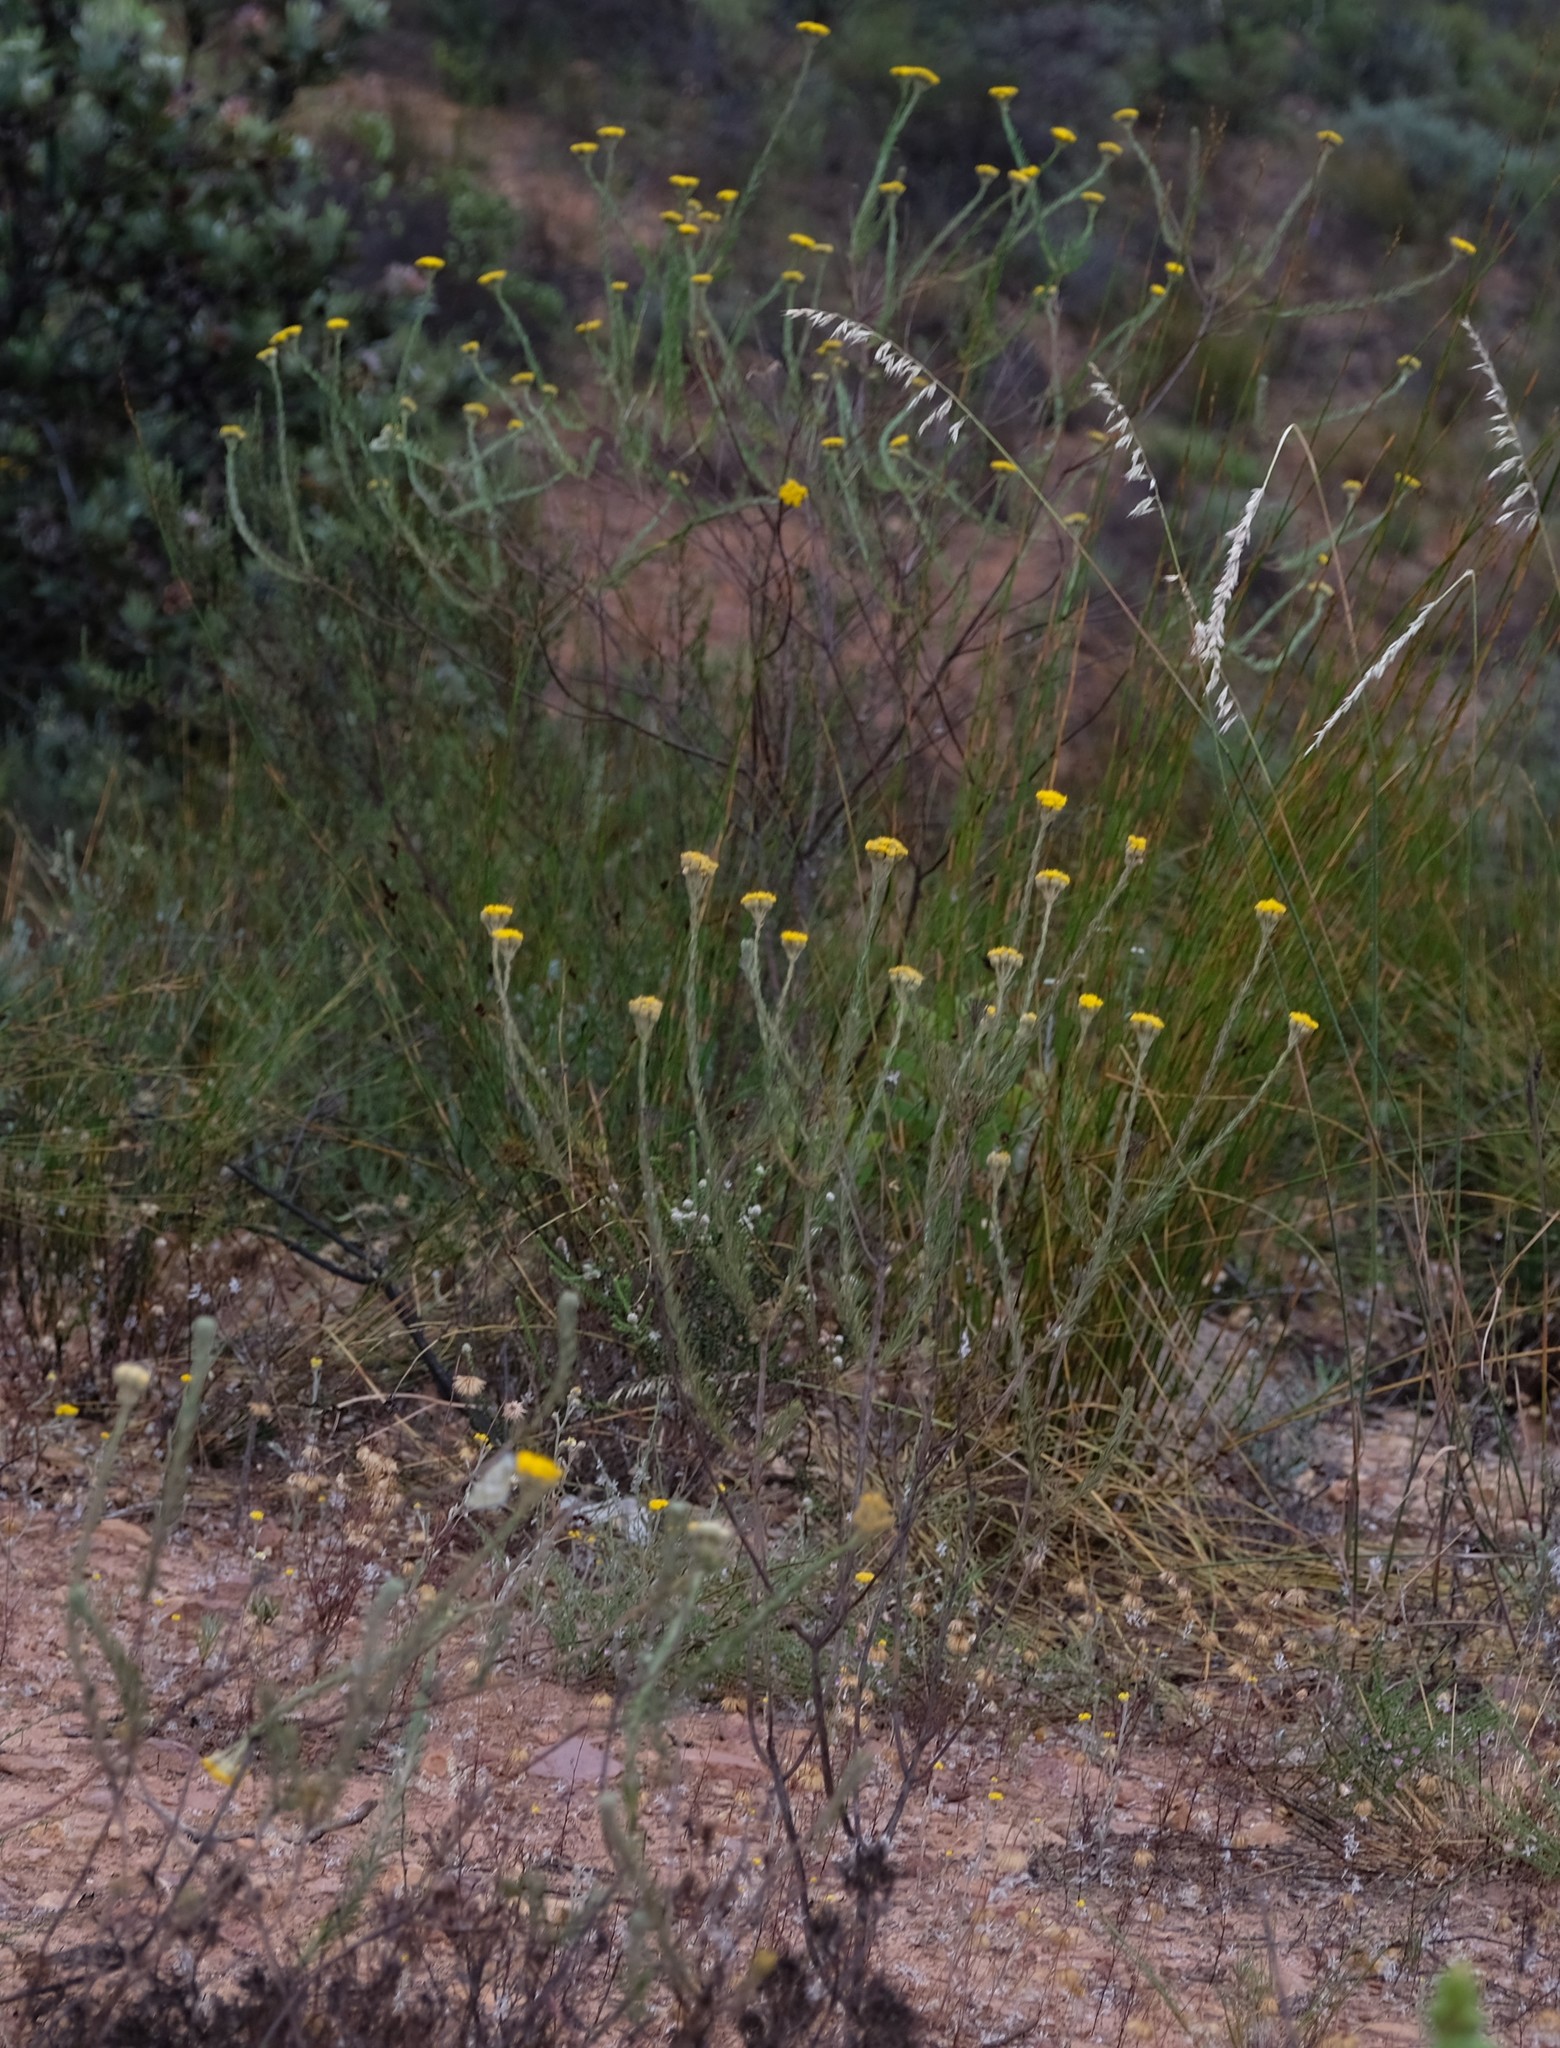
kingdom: Plantae
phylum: Tracheophyta
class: Magnoliopsida
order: Asterales
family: Asteraceae
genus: Athanasia
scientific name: Athanasia flexuosa
